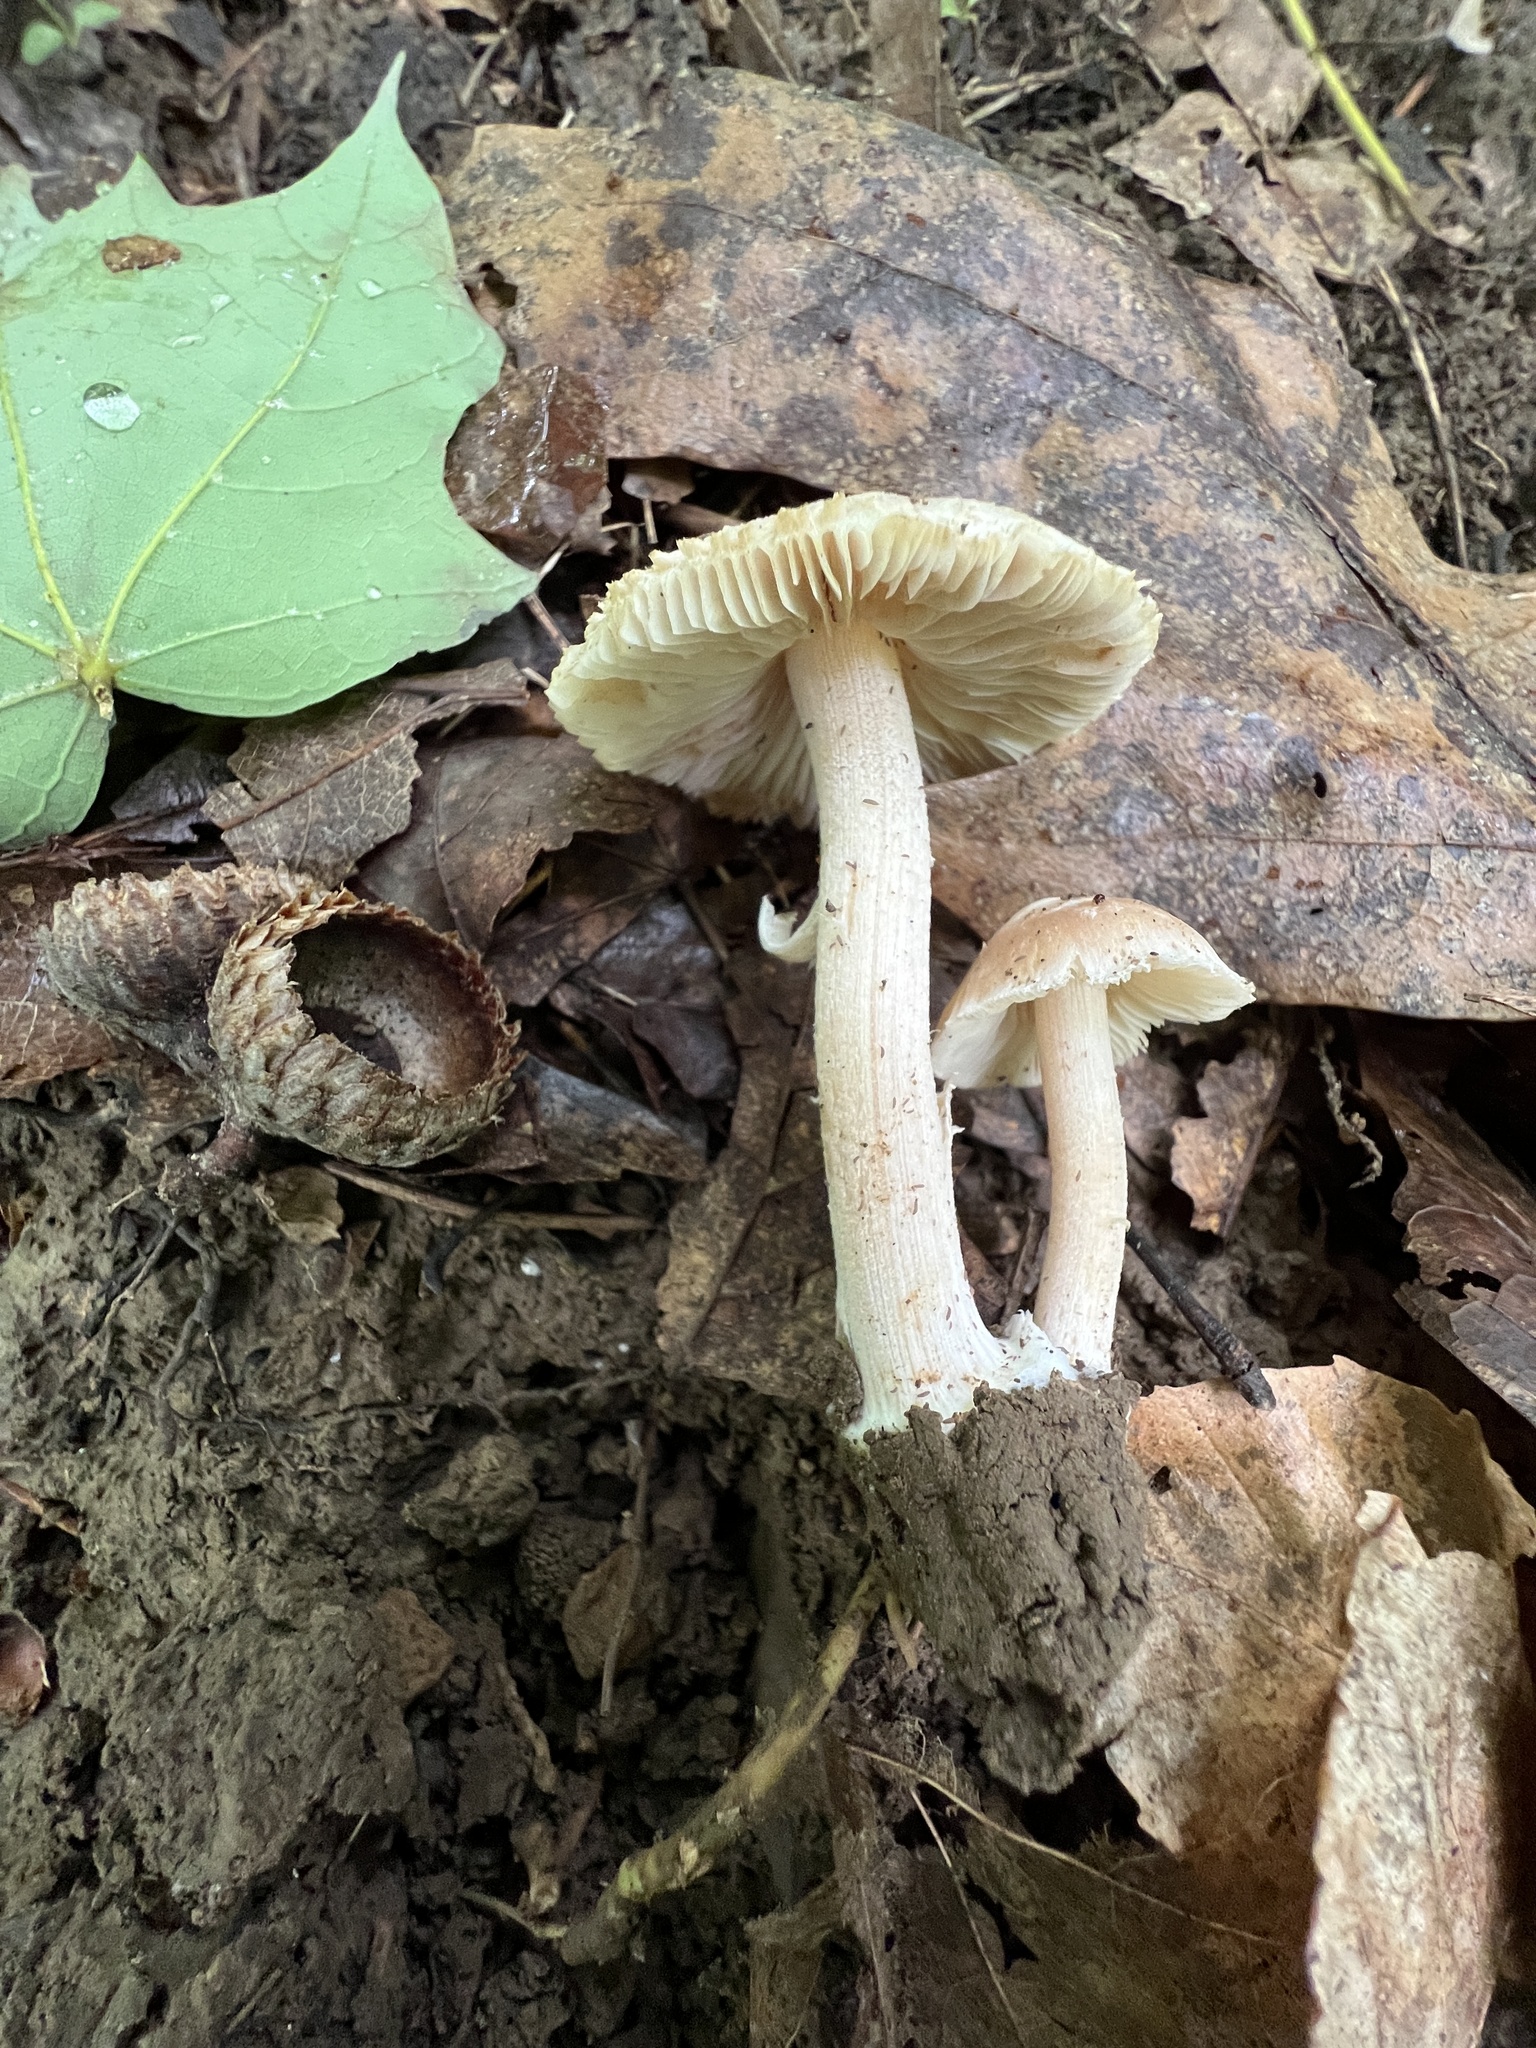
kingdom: Fungi
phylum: Basidiomycota
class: Agaricomycetes
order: Agaricales
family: Inocybaceae
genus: Inocybe
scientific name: Inocybe velicopia
